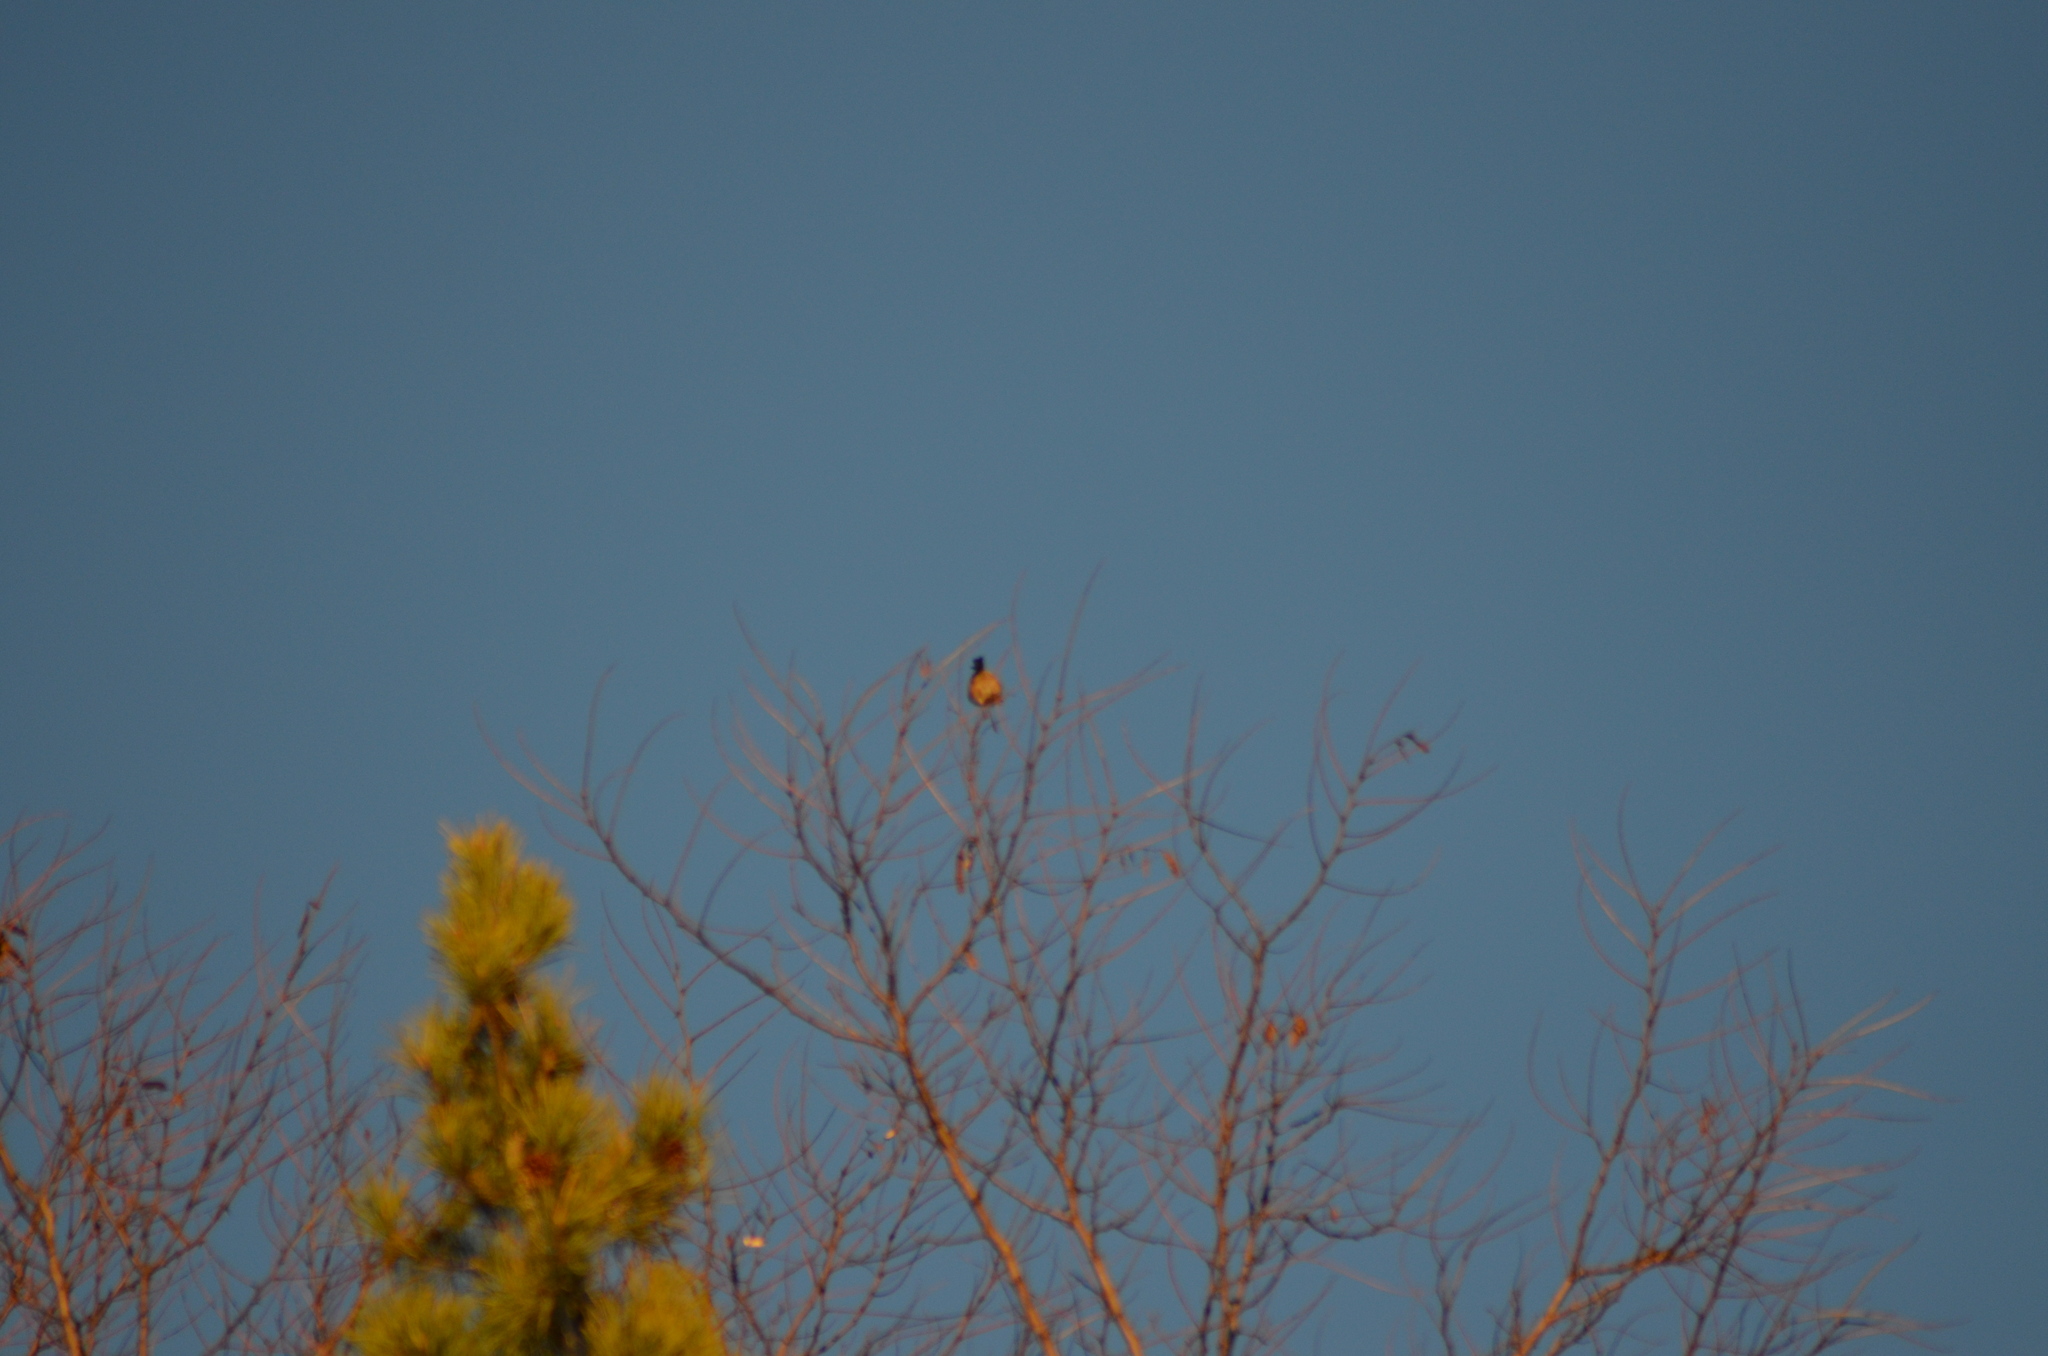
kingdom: Animalia
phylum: Chordata
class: Aves
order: Passeriformes
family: Fringillidae
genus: Carduelis
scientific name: Carduelis carduelis
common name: European goldfinch
